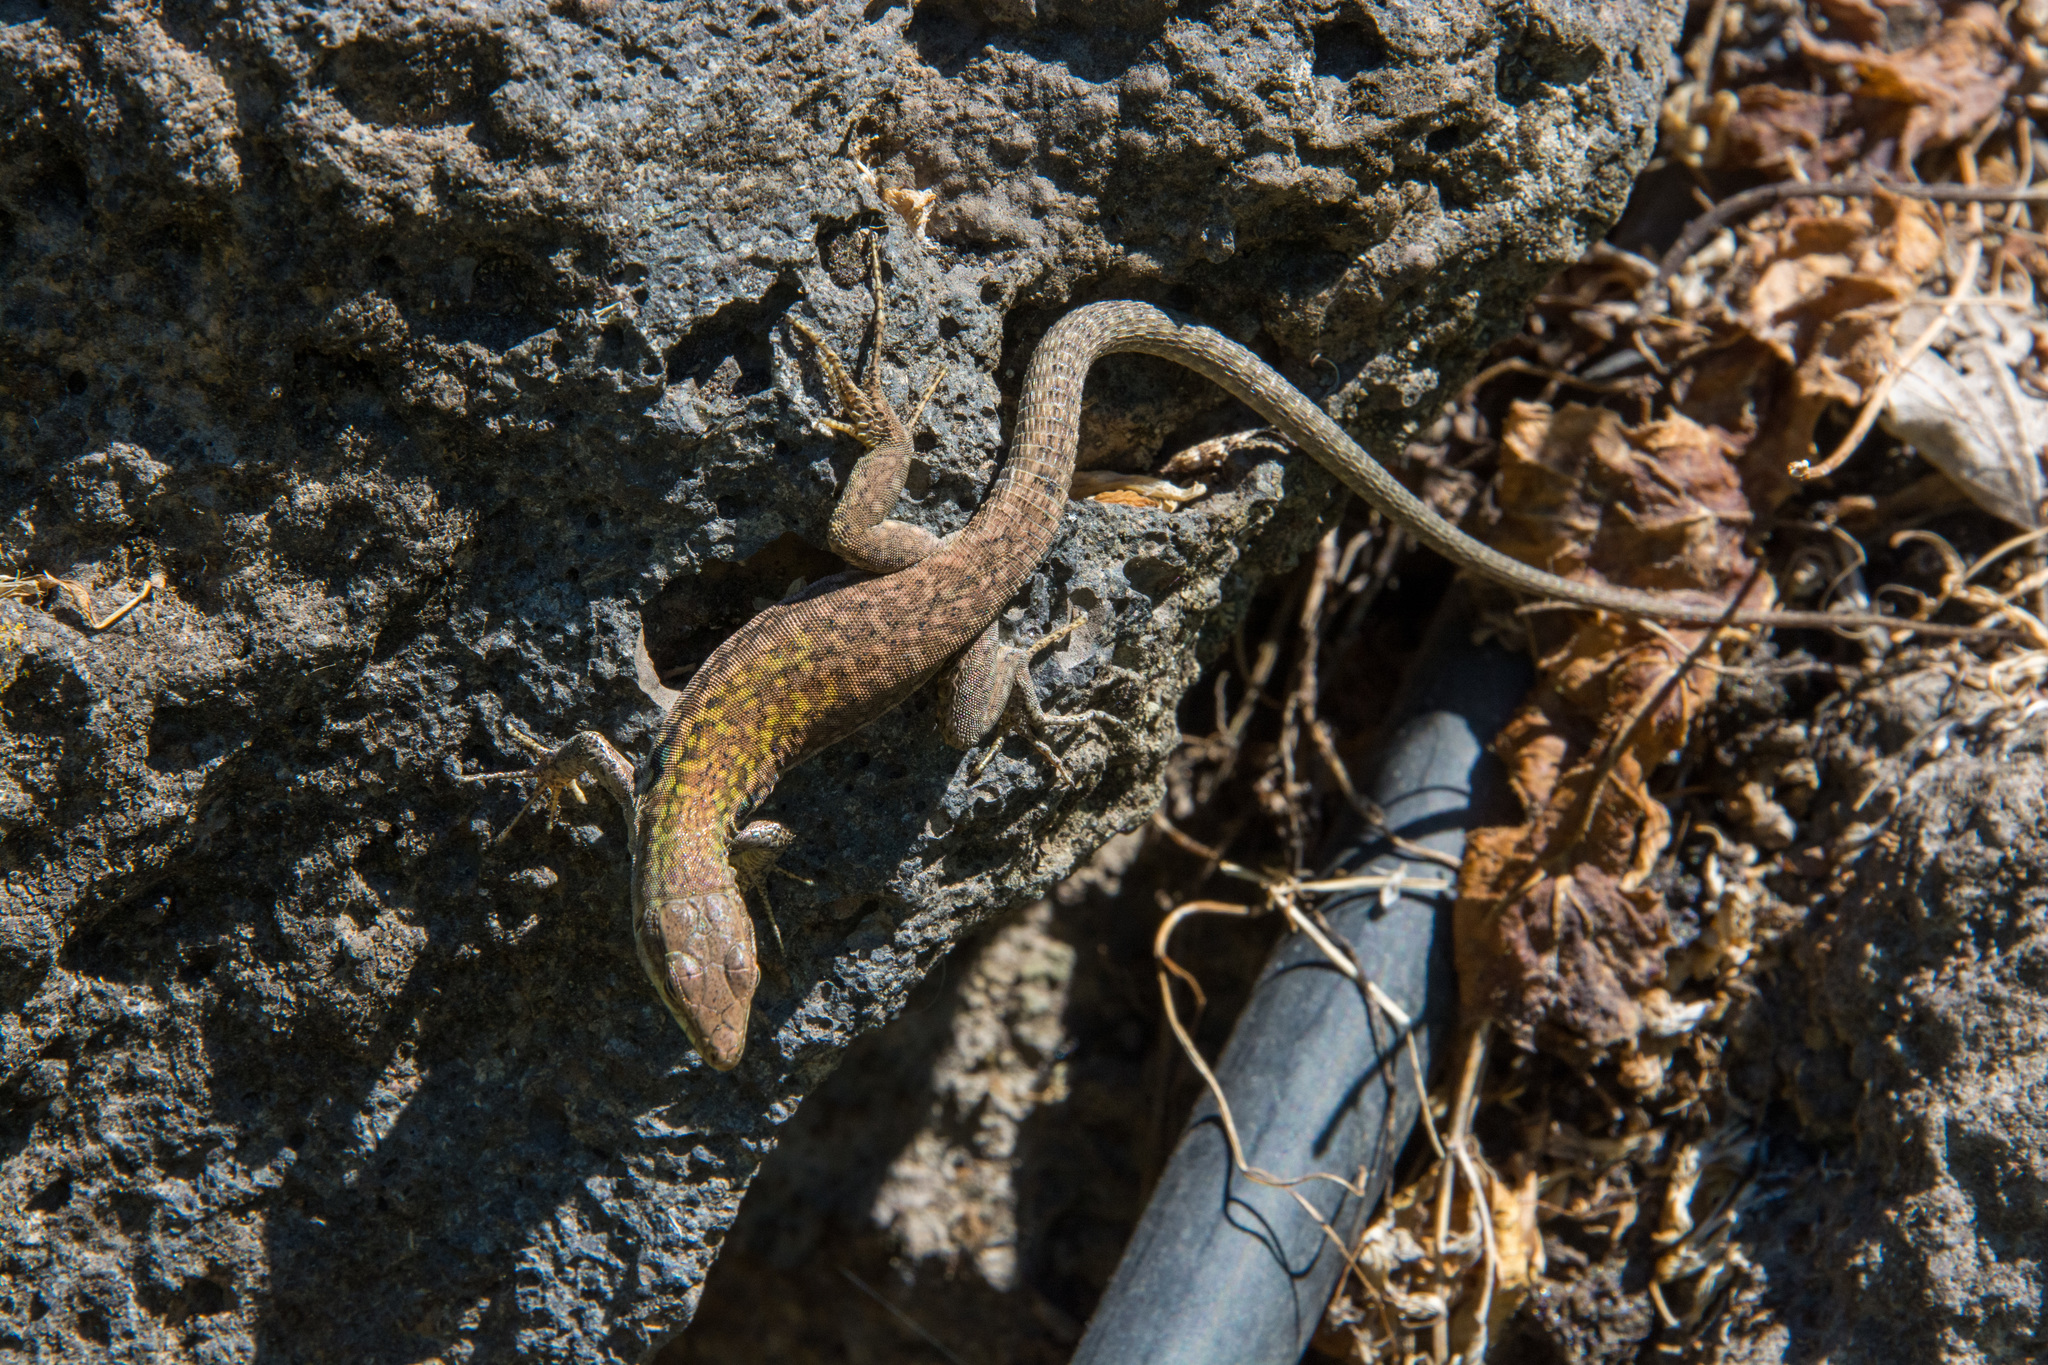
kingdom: Animalia
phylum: Chordata
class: Squamata
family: Lacertidae
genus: Podarcis
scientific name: Podarcis siculus
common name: Italian wall lizard
